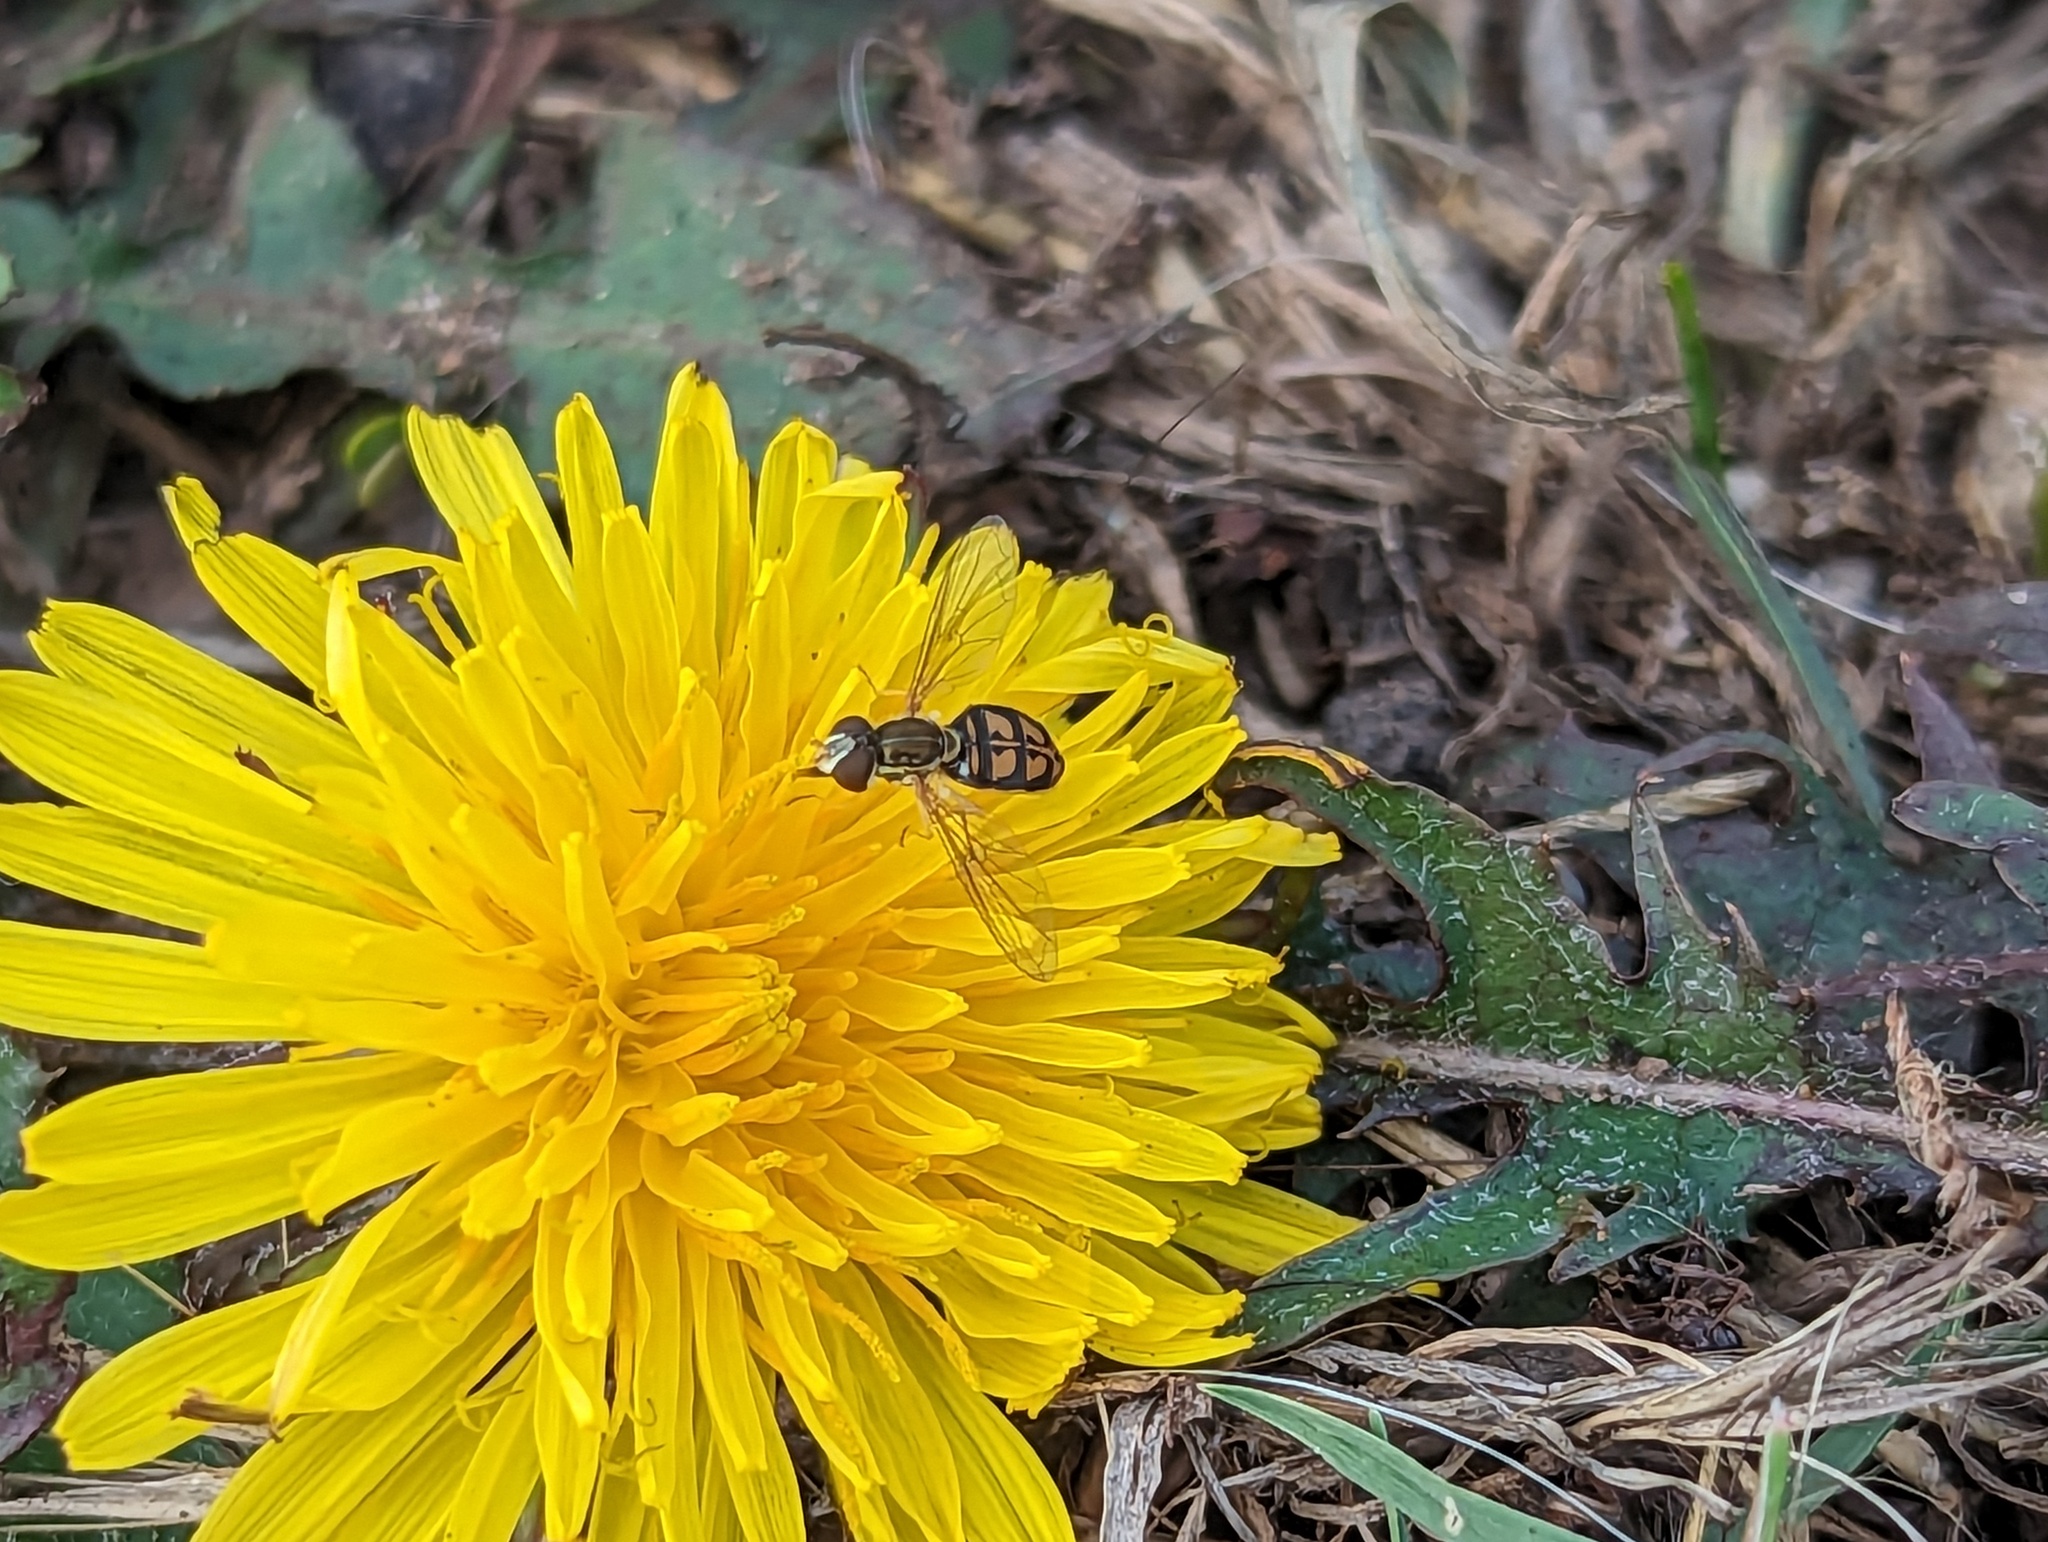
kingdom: Animalia
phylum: Arthropoda
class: Insecta
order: Diptera
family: Syrphidae
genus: Toxomerus
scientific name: Toxomerus marginatus
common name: Syrphid fly
